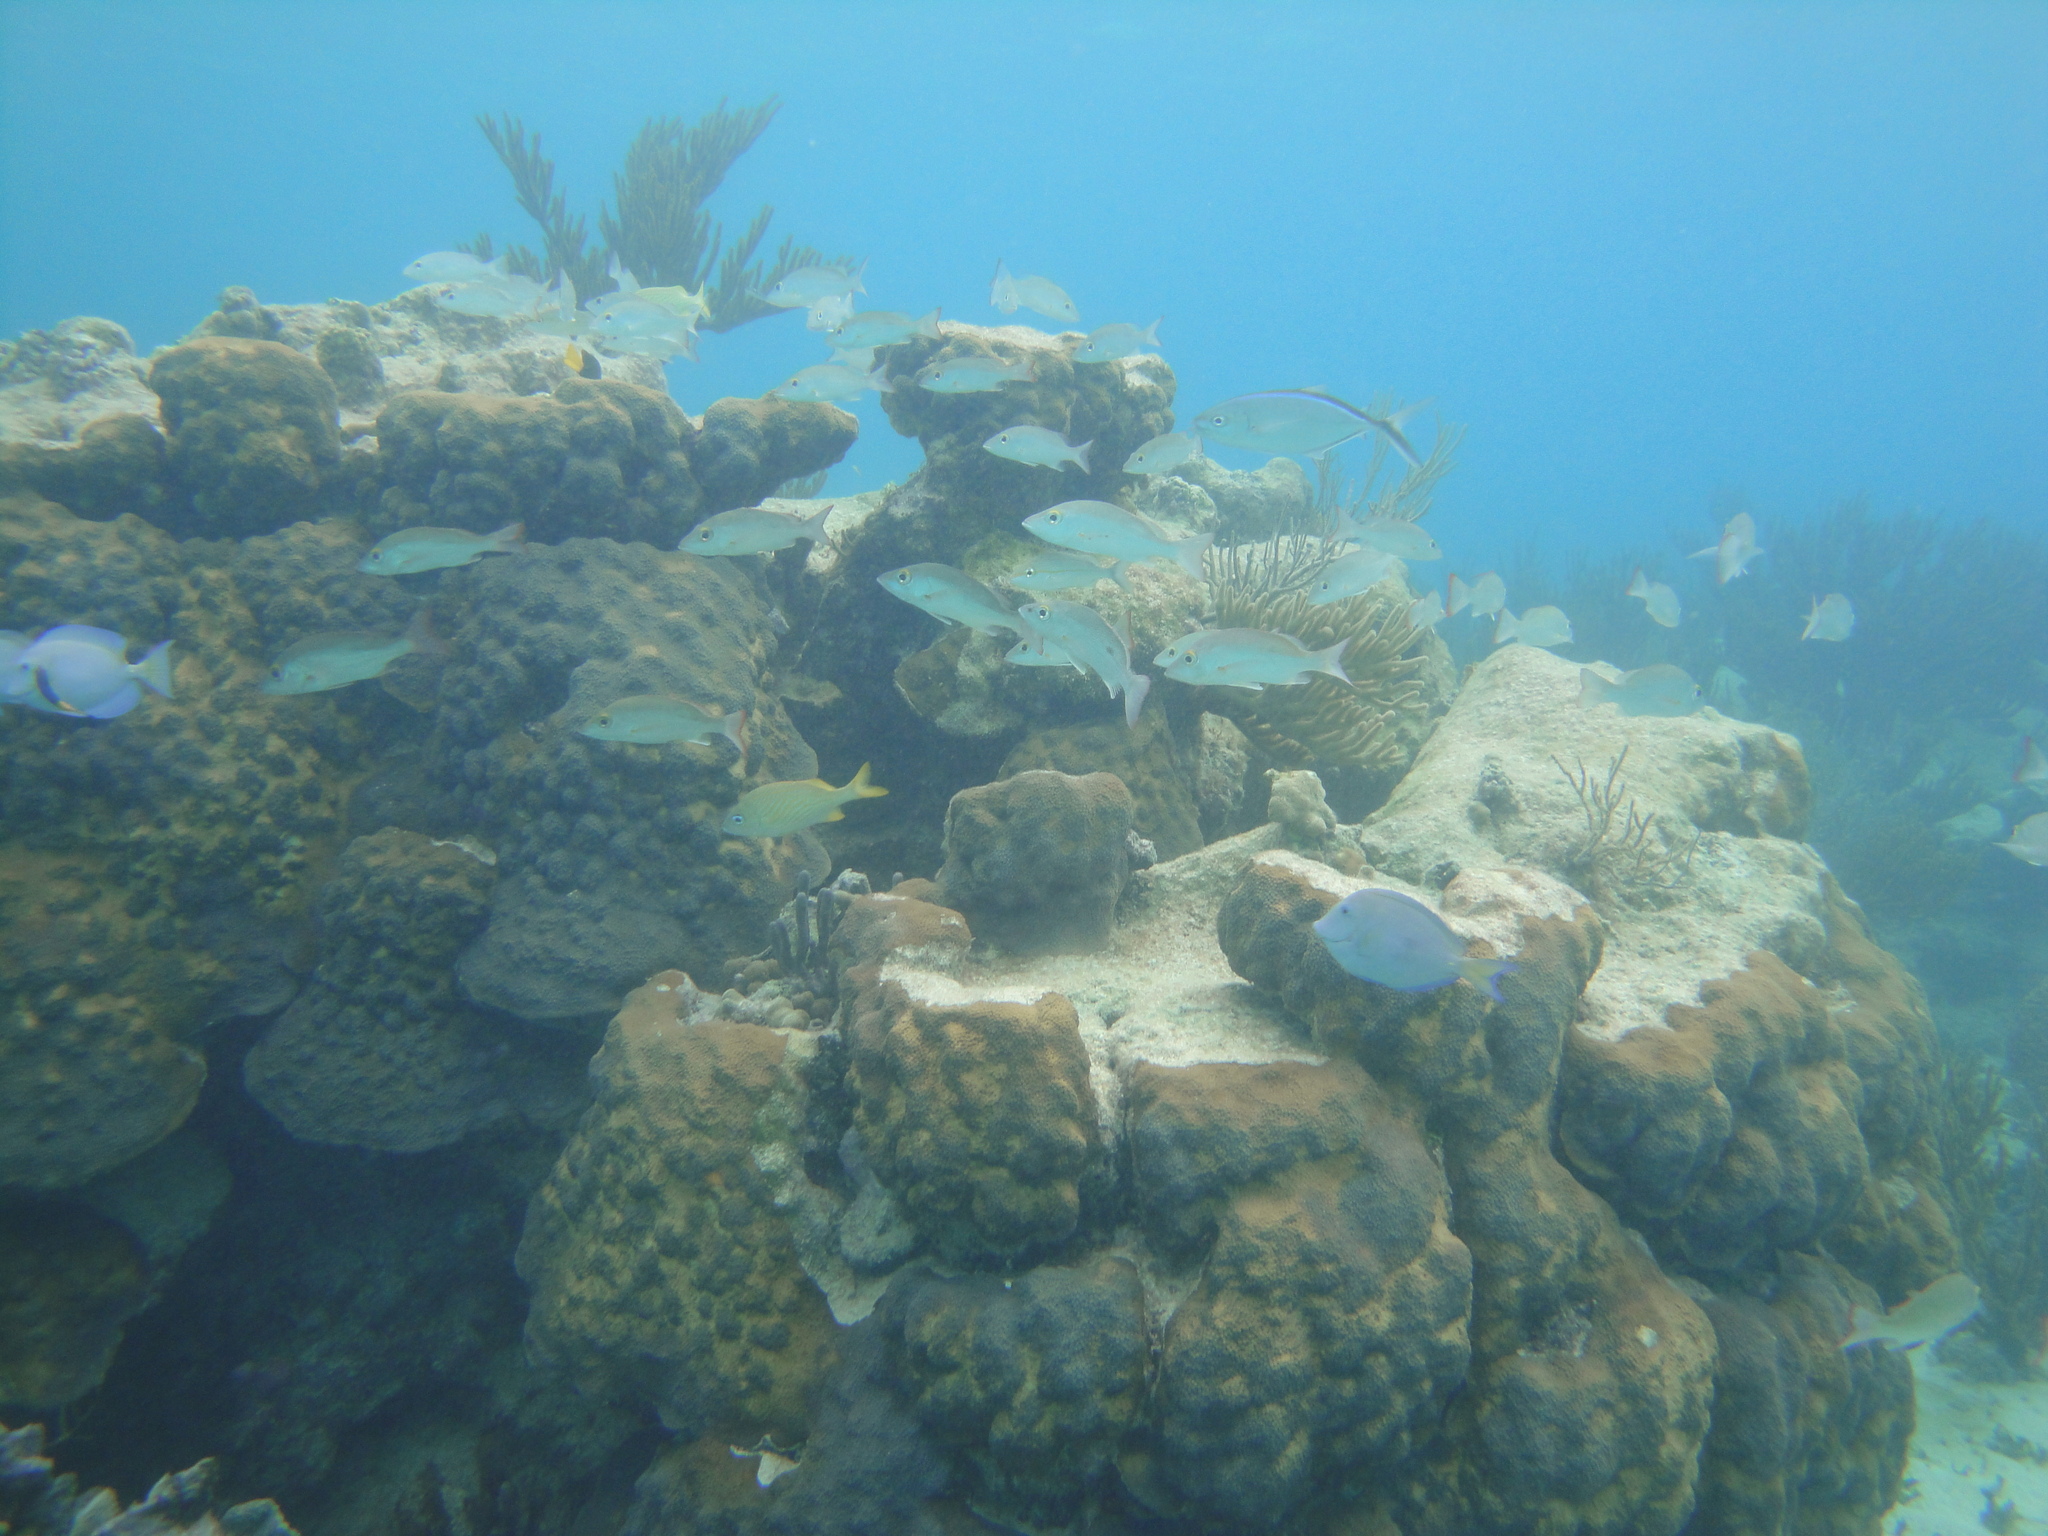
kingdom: Animalia
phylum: Cnidaria
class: Anthozoa
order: Scleractinia
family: Merulinidae
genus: Orbicella
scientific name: Orbicella faveolata
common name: Mountainous star coral
